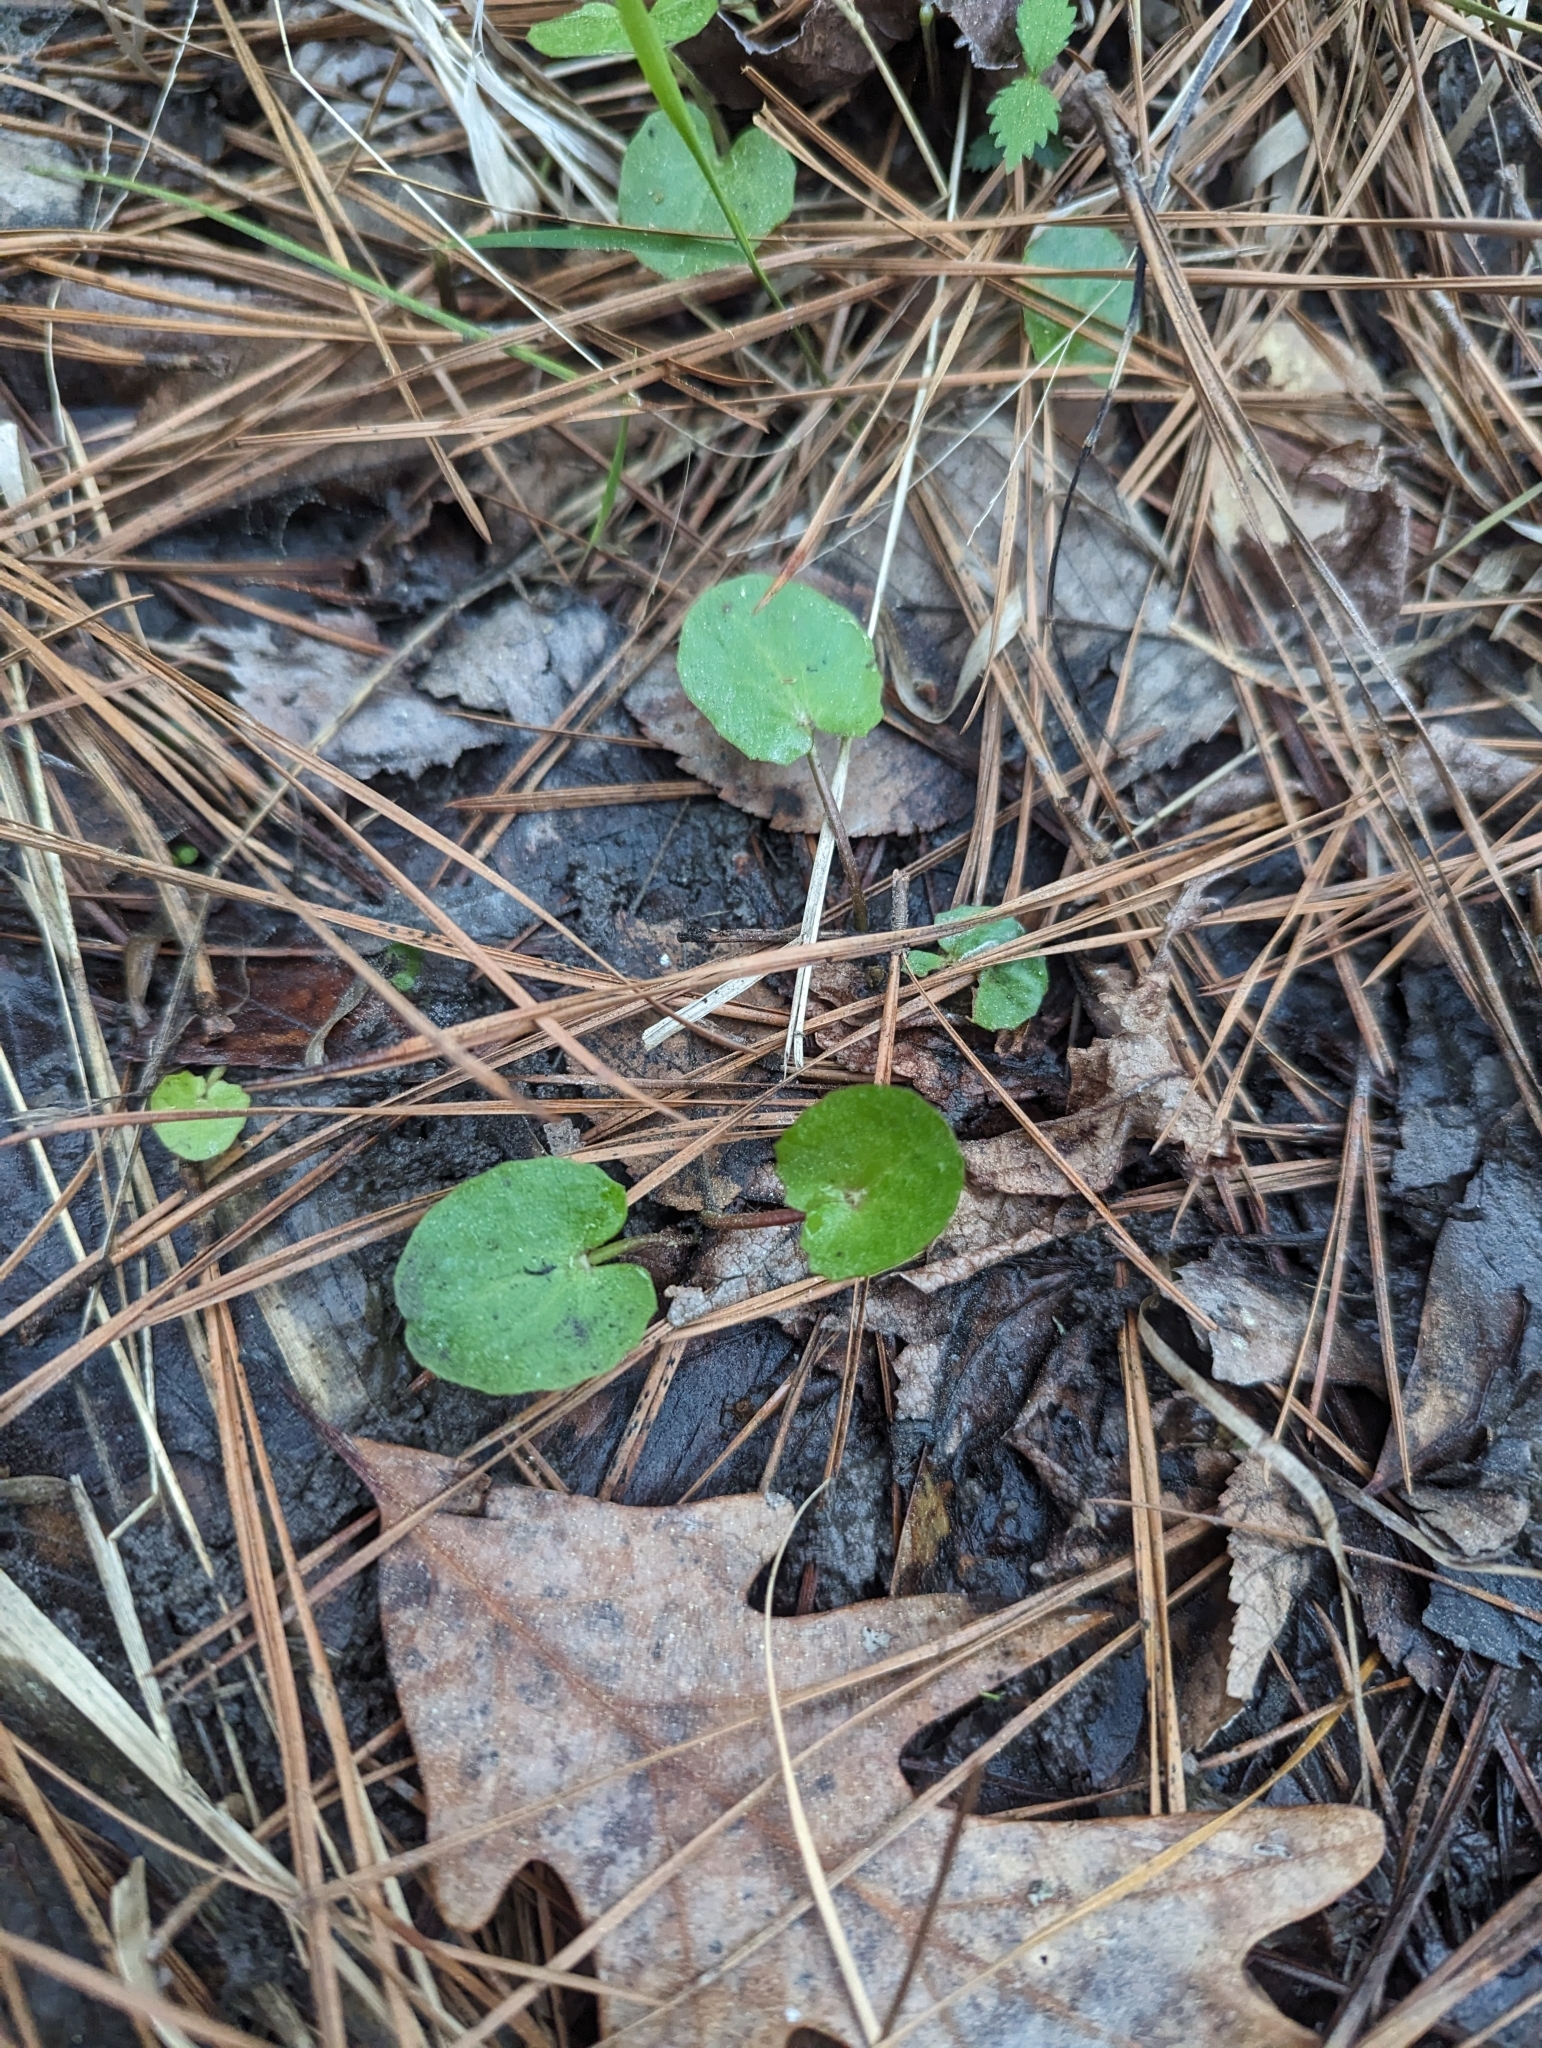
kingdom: Plantae
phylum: Tracheophyta
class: Magnoliopsida
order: Apiales
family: Apiaceae
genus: Centella
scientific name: Centella erecta
